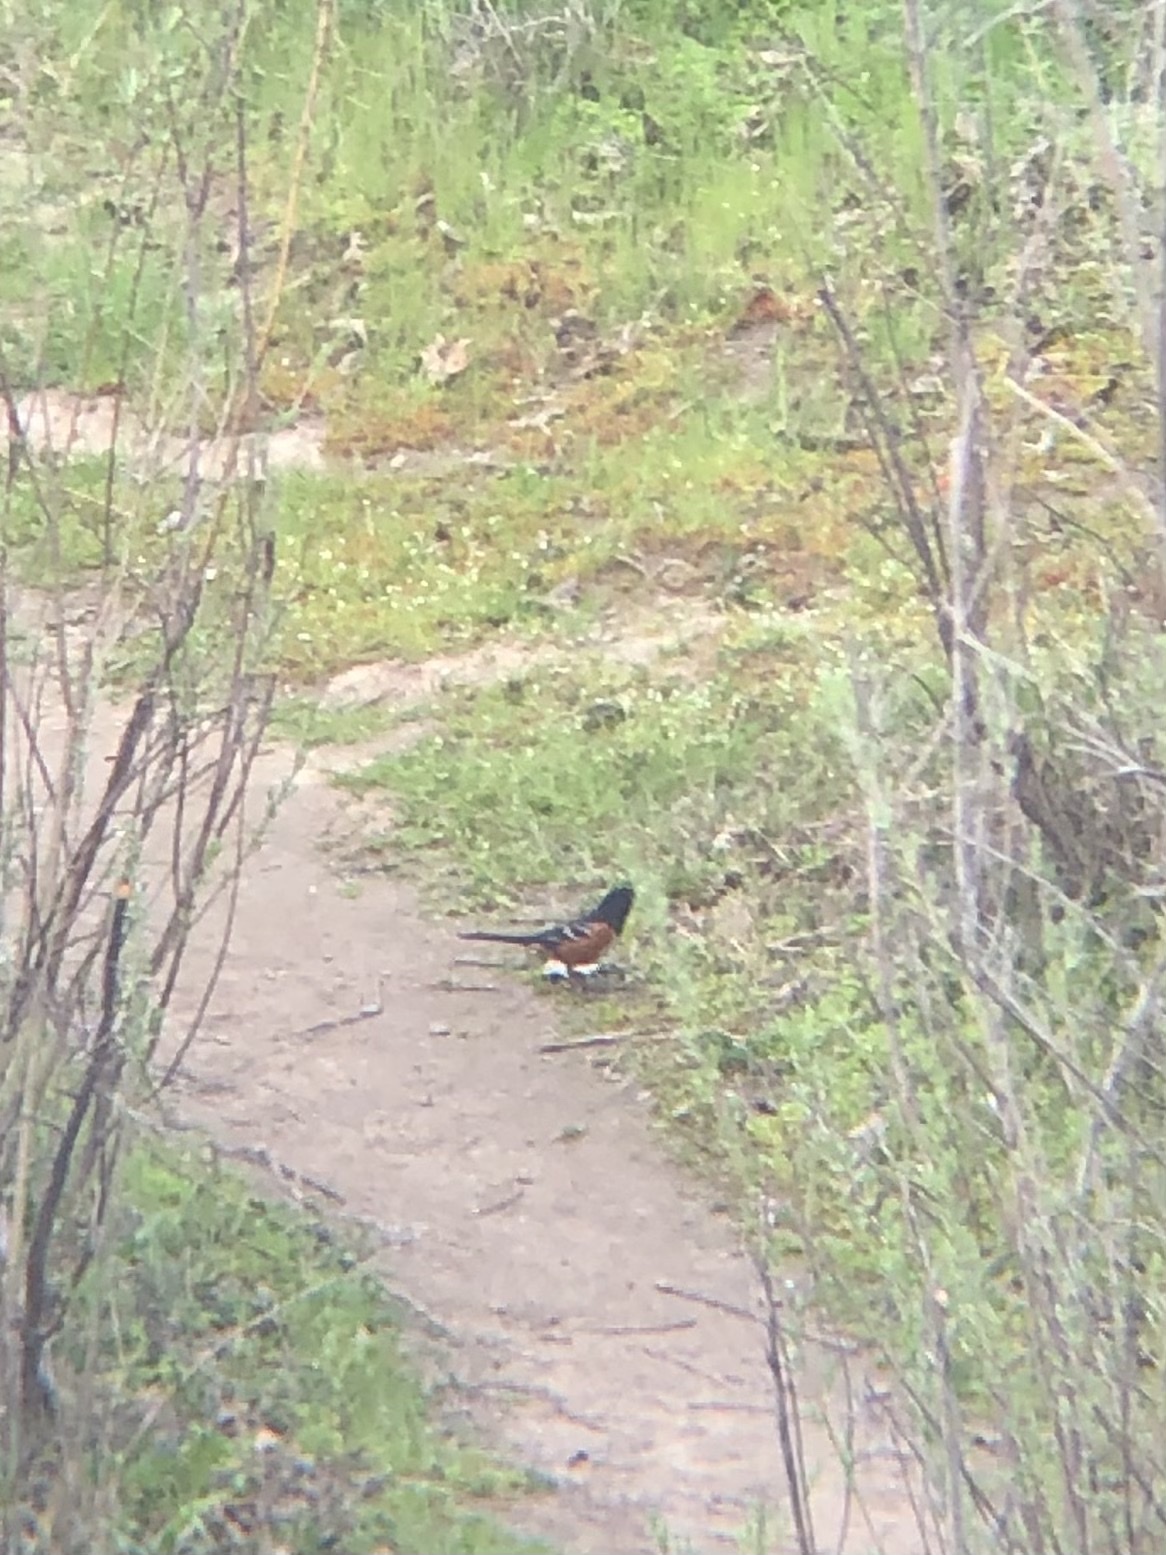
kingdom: Animalia
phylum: Chordata
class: Aves
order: Passeriformes
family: Passerellidae
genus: Pipilo
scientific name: Pipilo maculatus
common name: Spotted towhee
